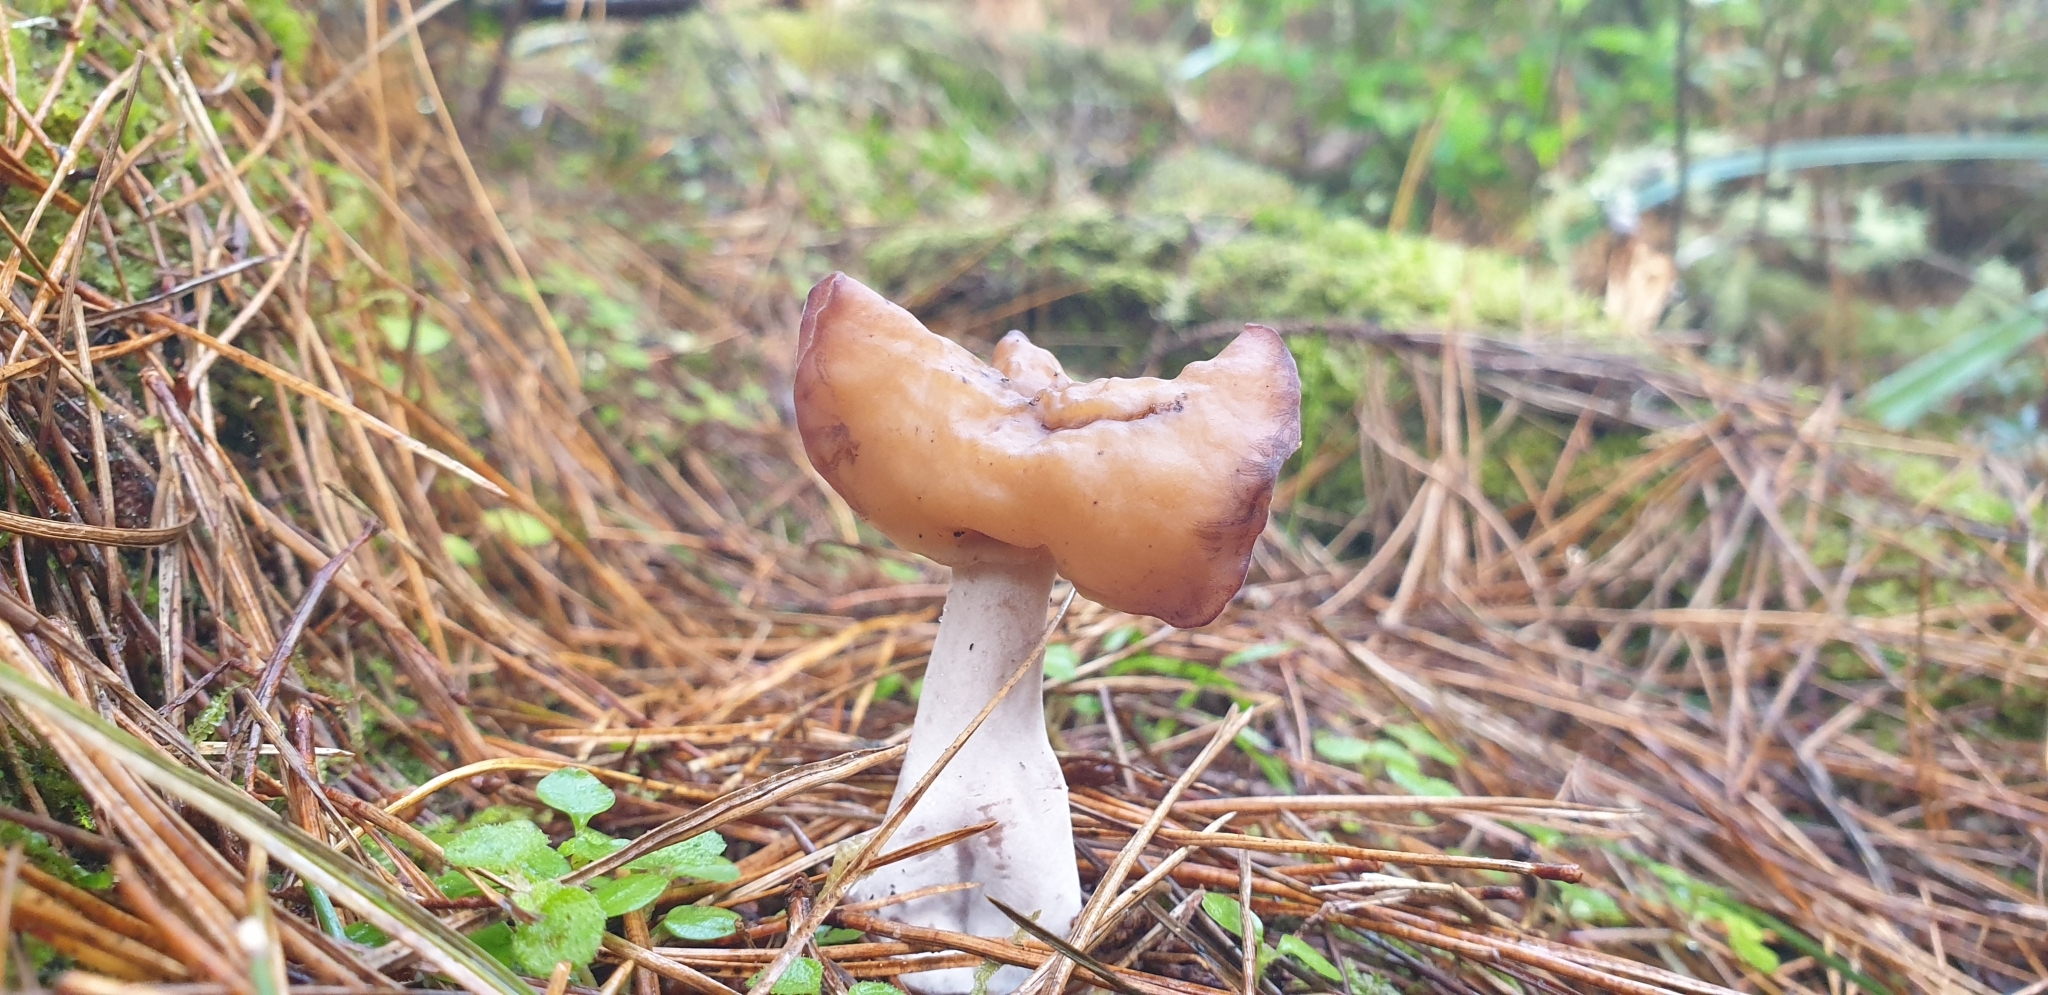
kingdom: Fungi
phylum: Ascomycota
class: Pezizomycetes
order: Pezizales
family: Discinaceae
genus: Gyromitra
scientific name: Gyromitra infula
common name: Pouched false morel
